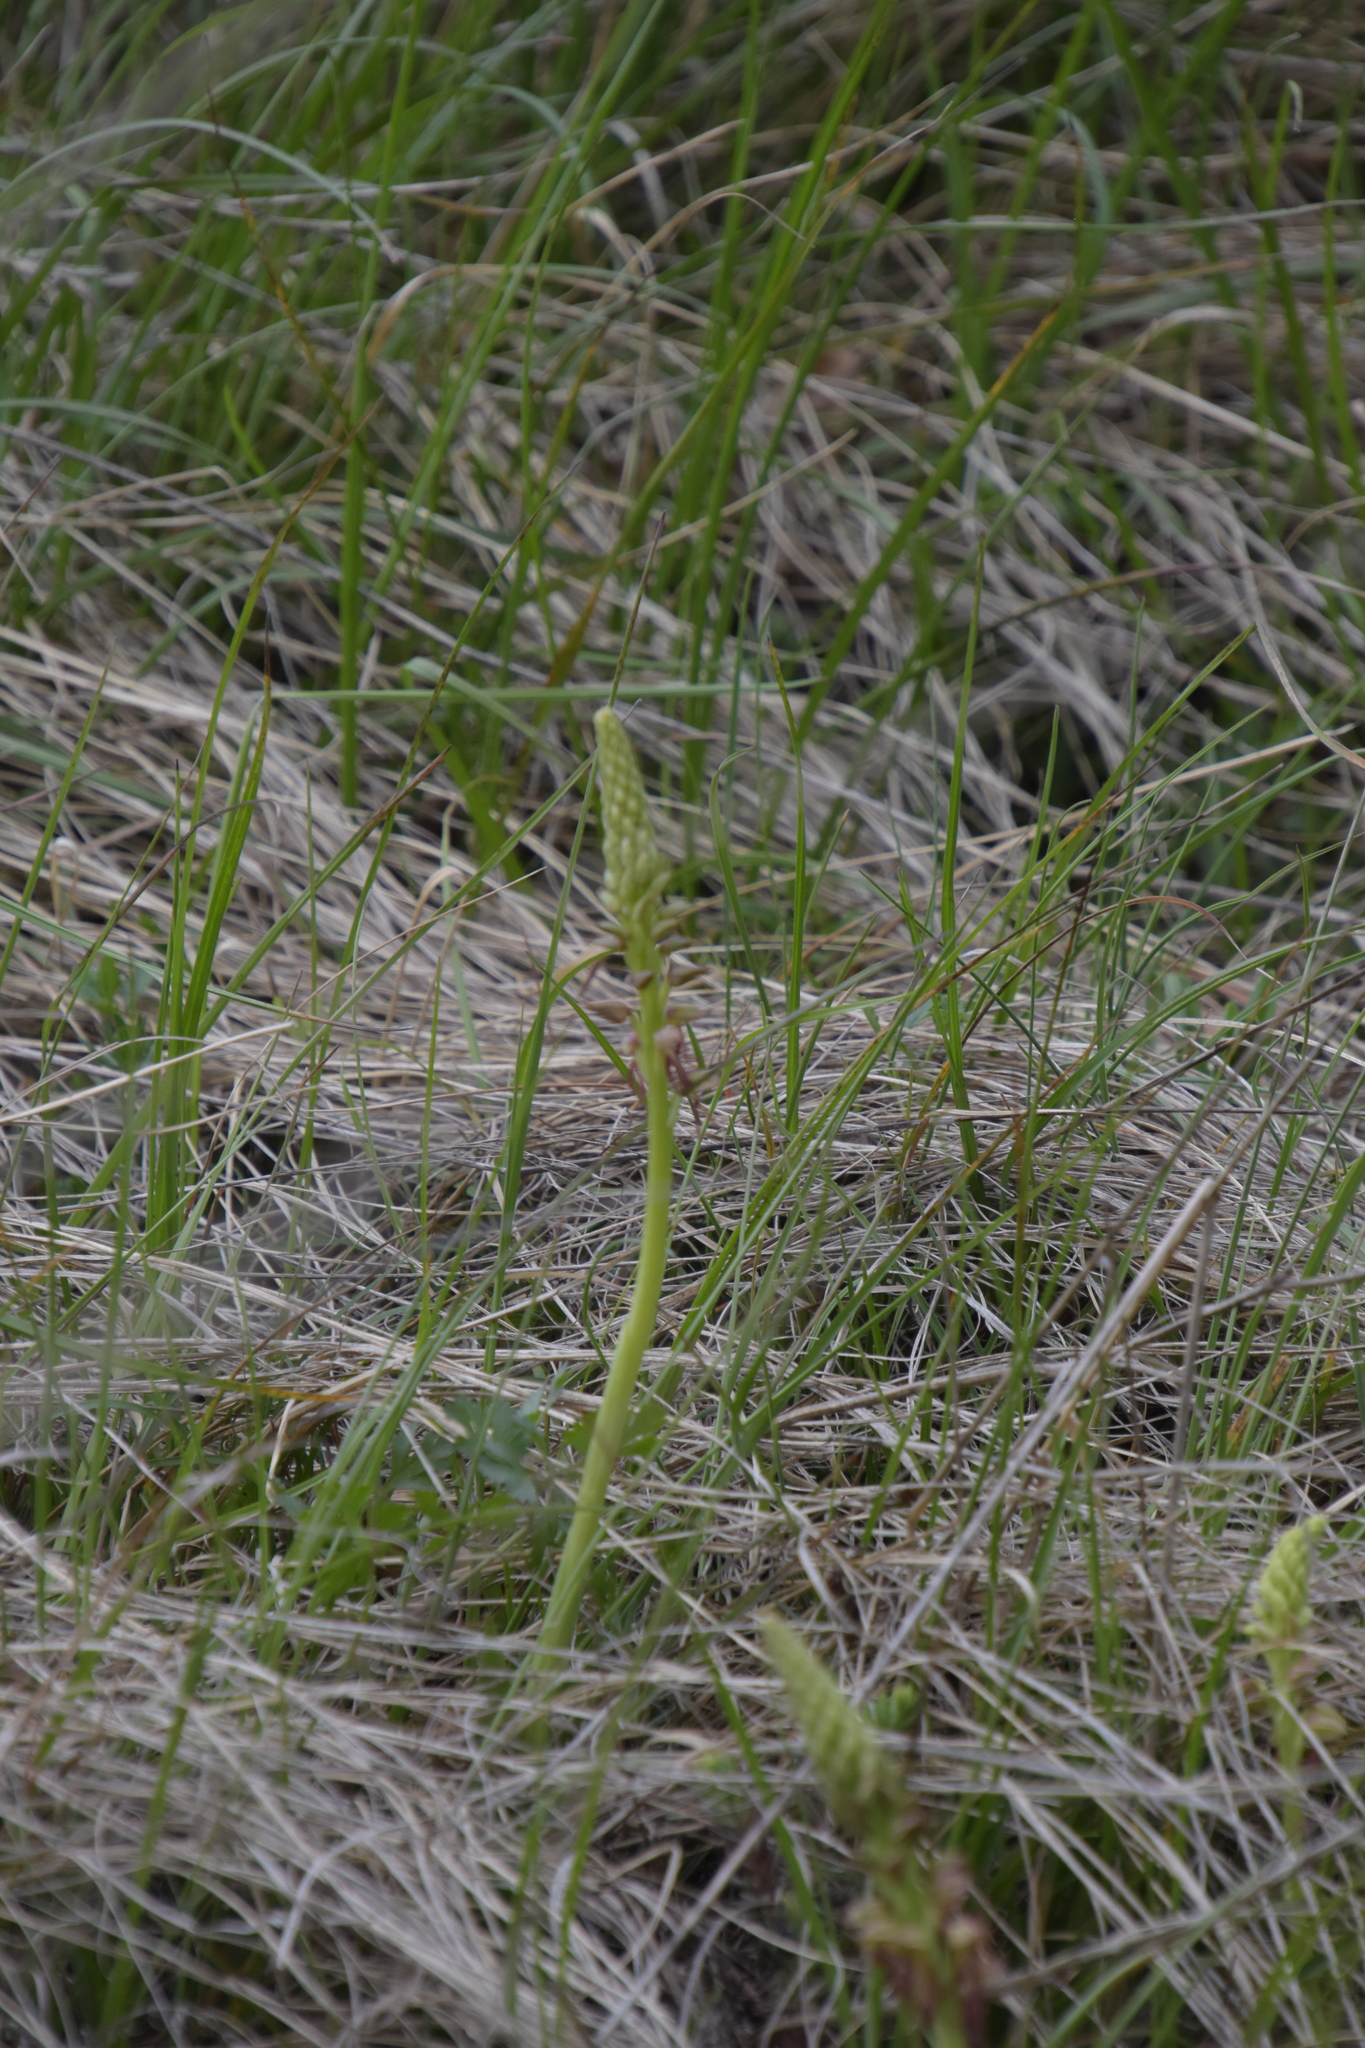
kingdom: Plantae
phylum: Tracheophyta
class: Liliopsida
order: Asparagales
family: Orchidaceae
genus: Orchis
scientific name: Orchis anthropophora
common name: Man orchid
